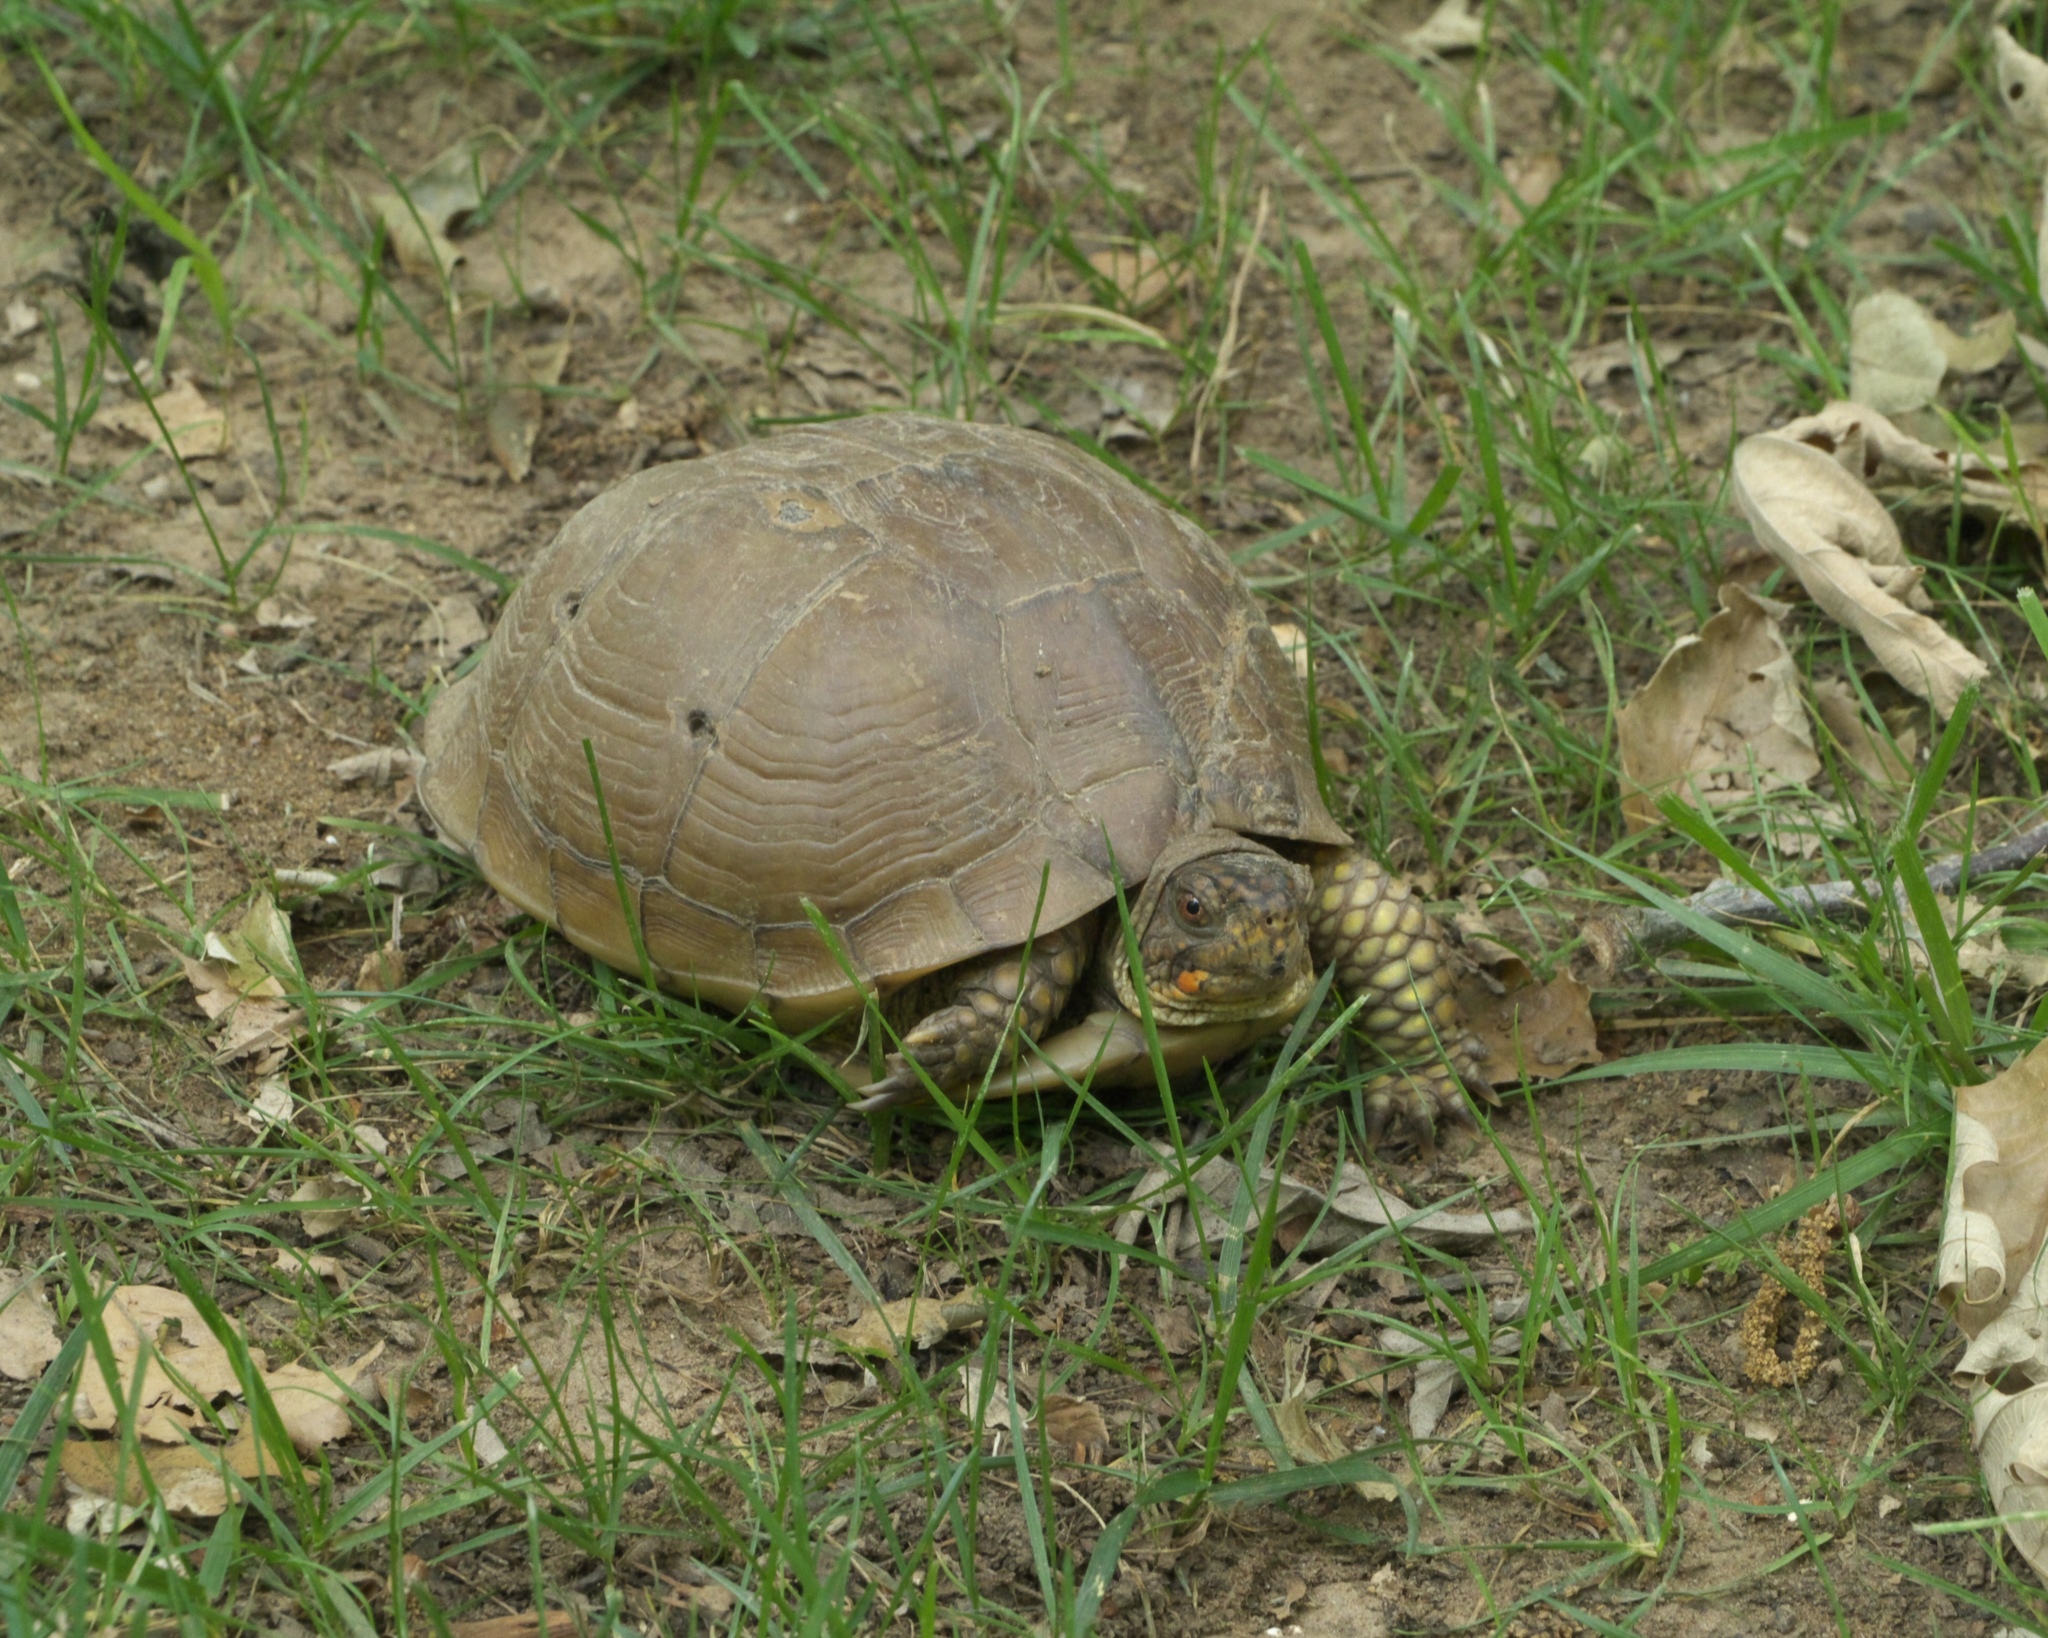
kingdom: Animalia
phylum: Chordata
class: Testudines
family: Emydidae
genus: Terrapene
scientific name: Terrapene carolina
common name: Common box turtle
